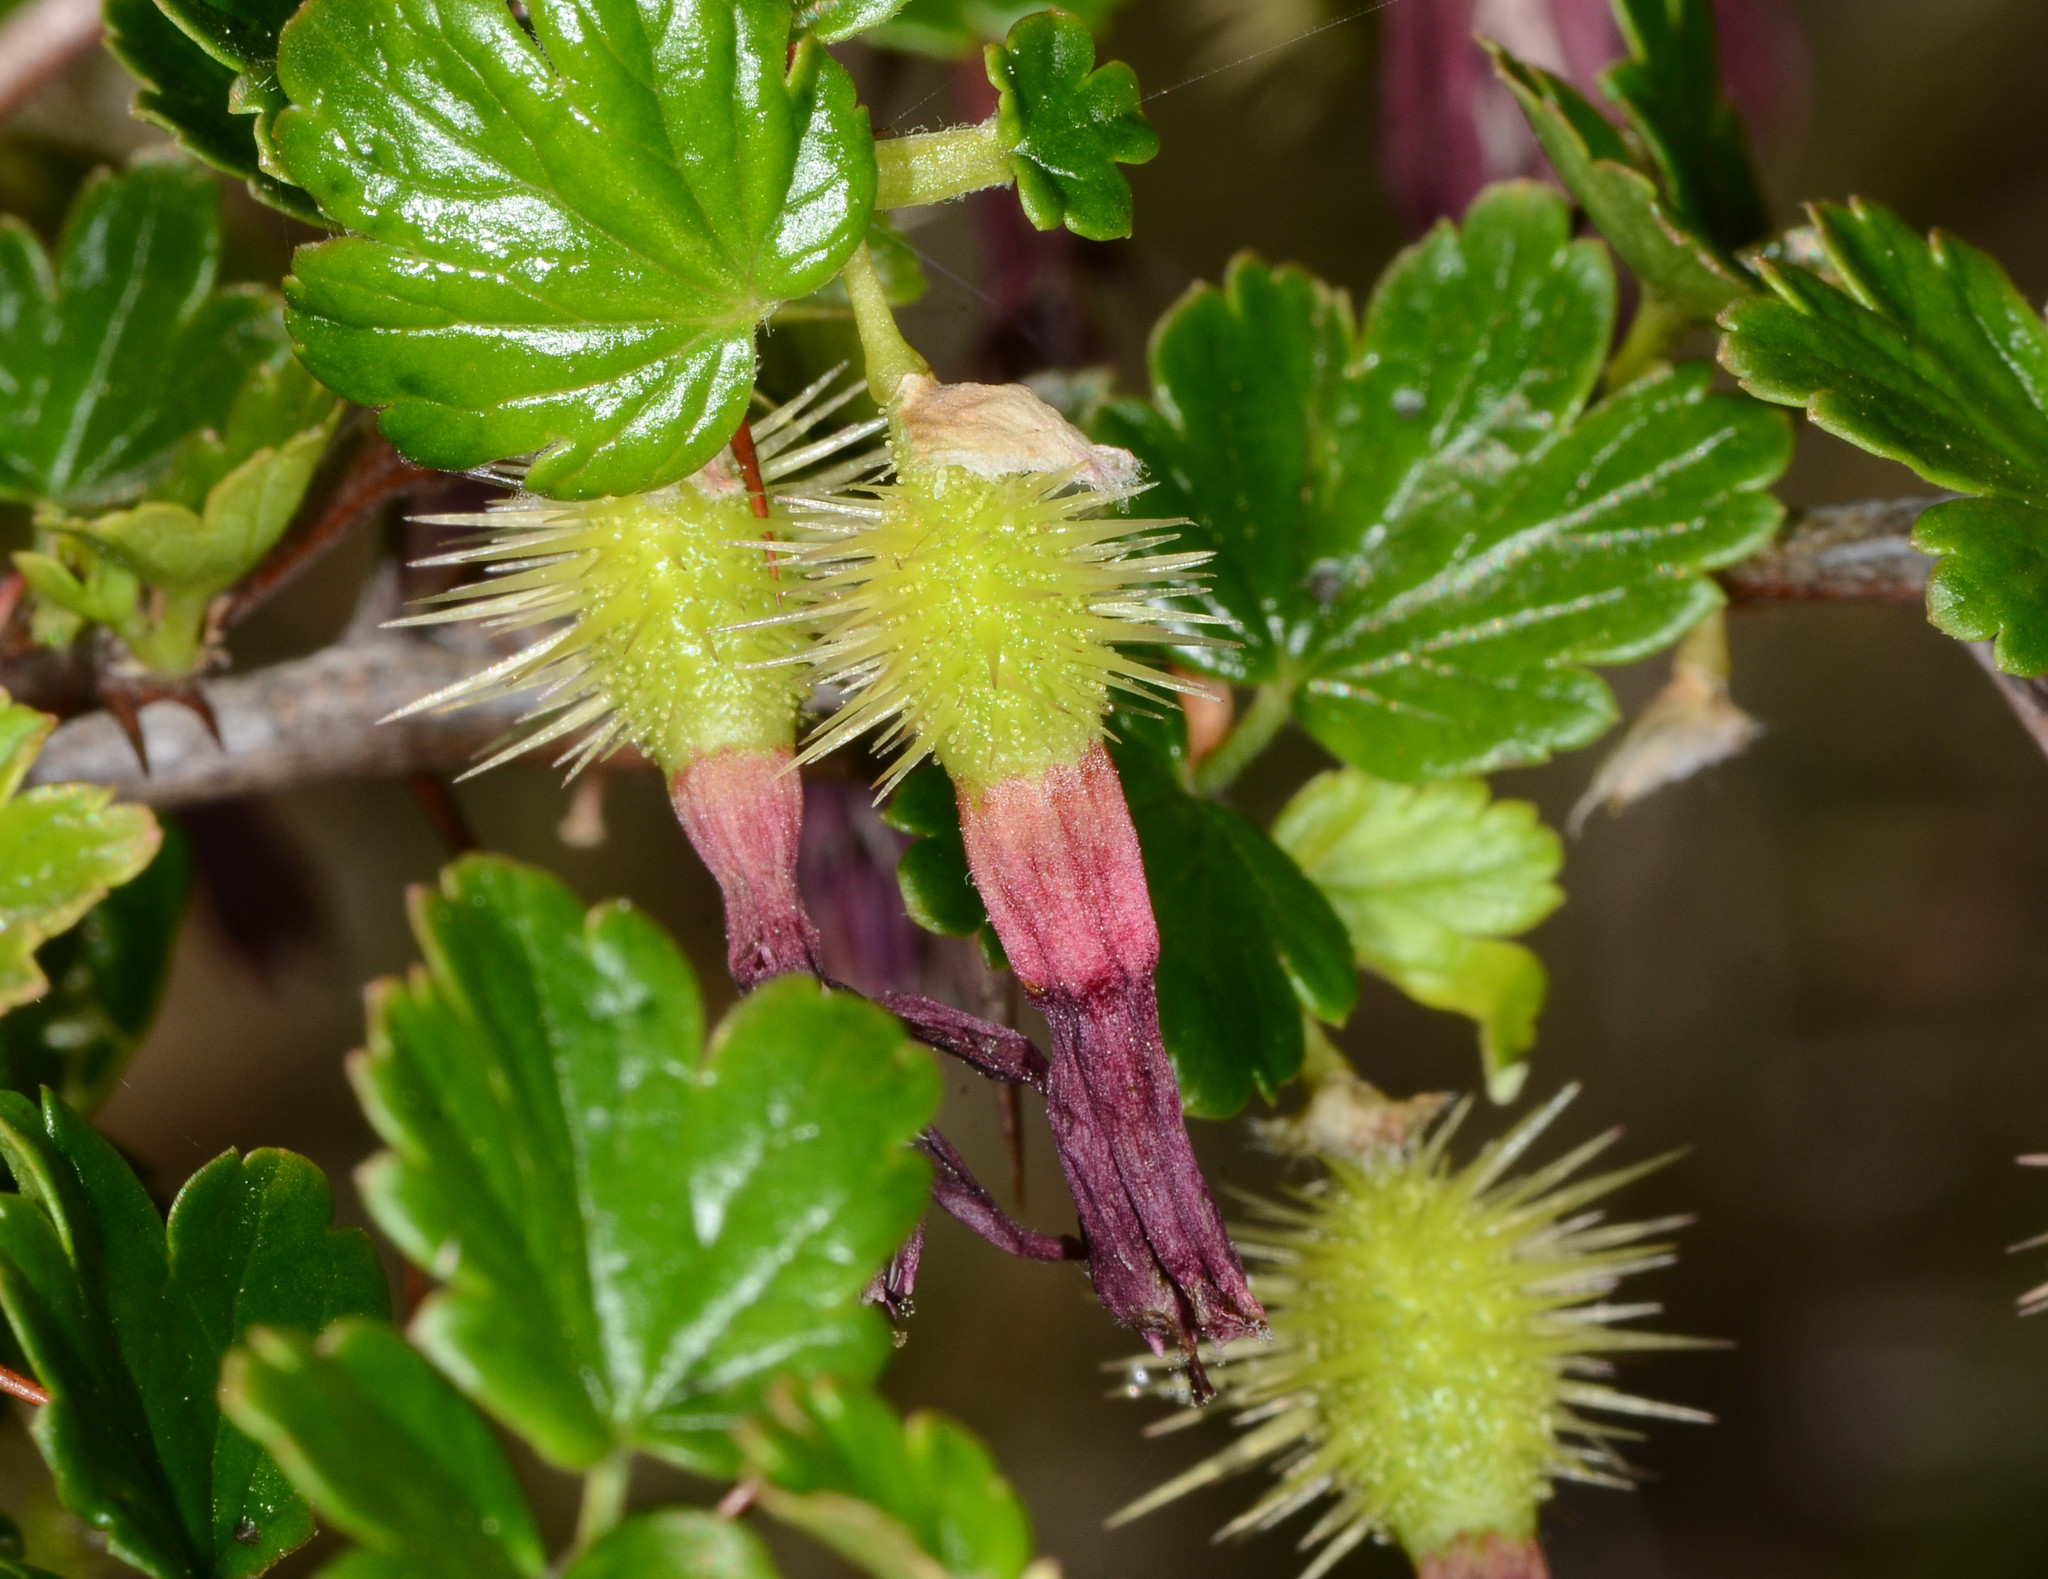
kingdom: Plantae
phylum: Tracheophyta
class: Magnoliopsida
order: Saxifragales
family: Grossulariaceae
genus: Ribes
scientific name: Ribes cruentum
